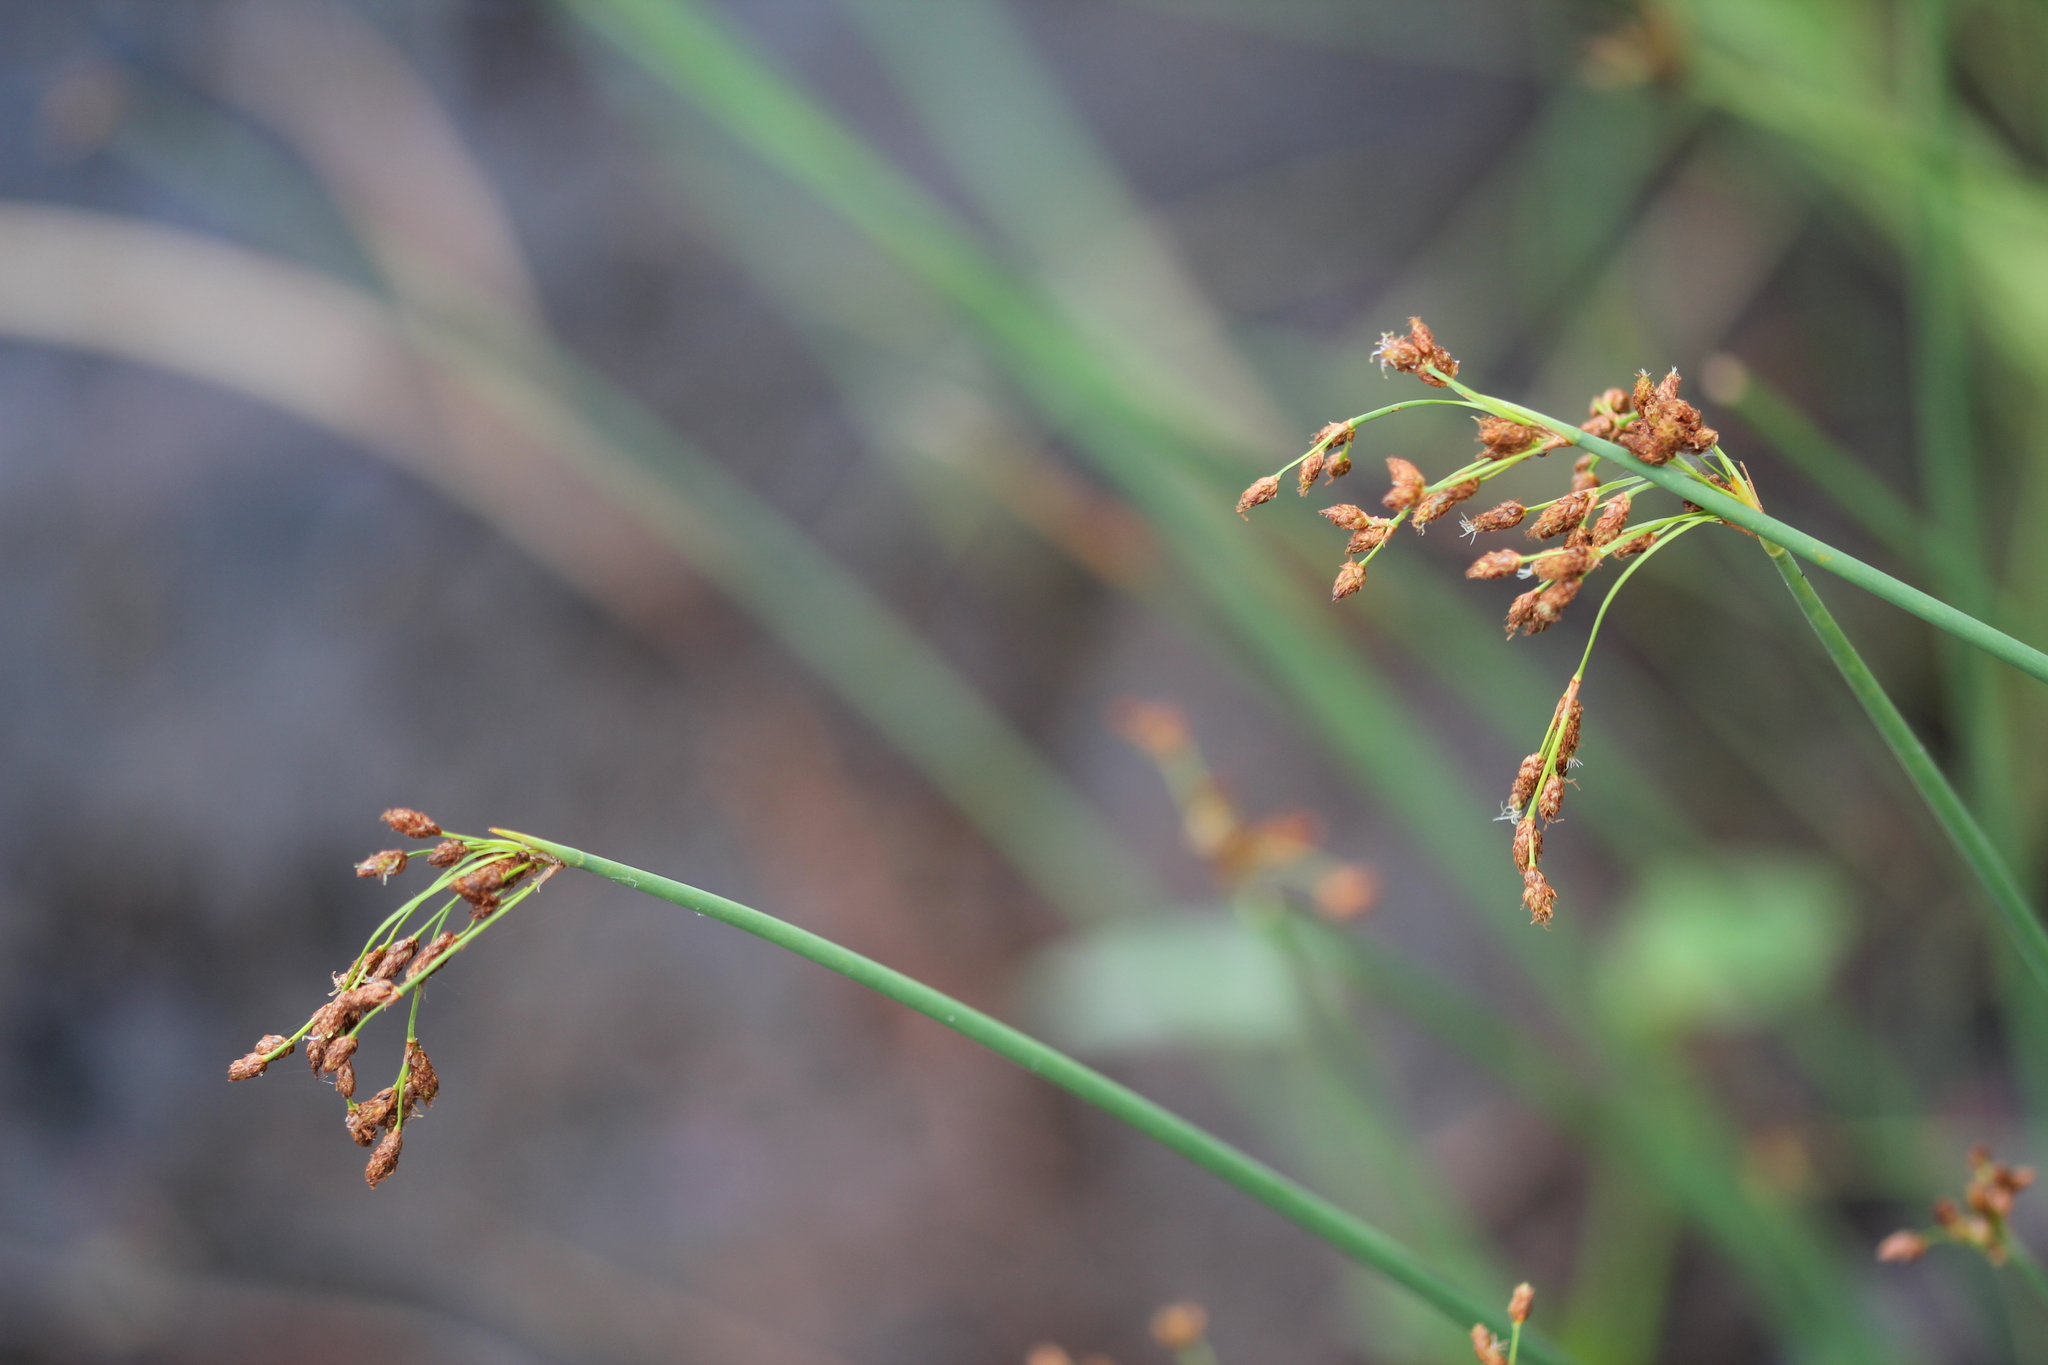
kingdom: Plantae
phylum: Tracheophyta
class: Liliopsida
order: Poales
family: Cyperaceae
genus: Schoenoplectus
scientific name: Schoenoplectus tabernaemontani
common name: Grey club-rush
